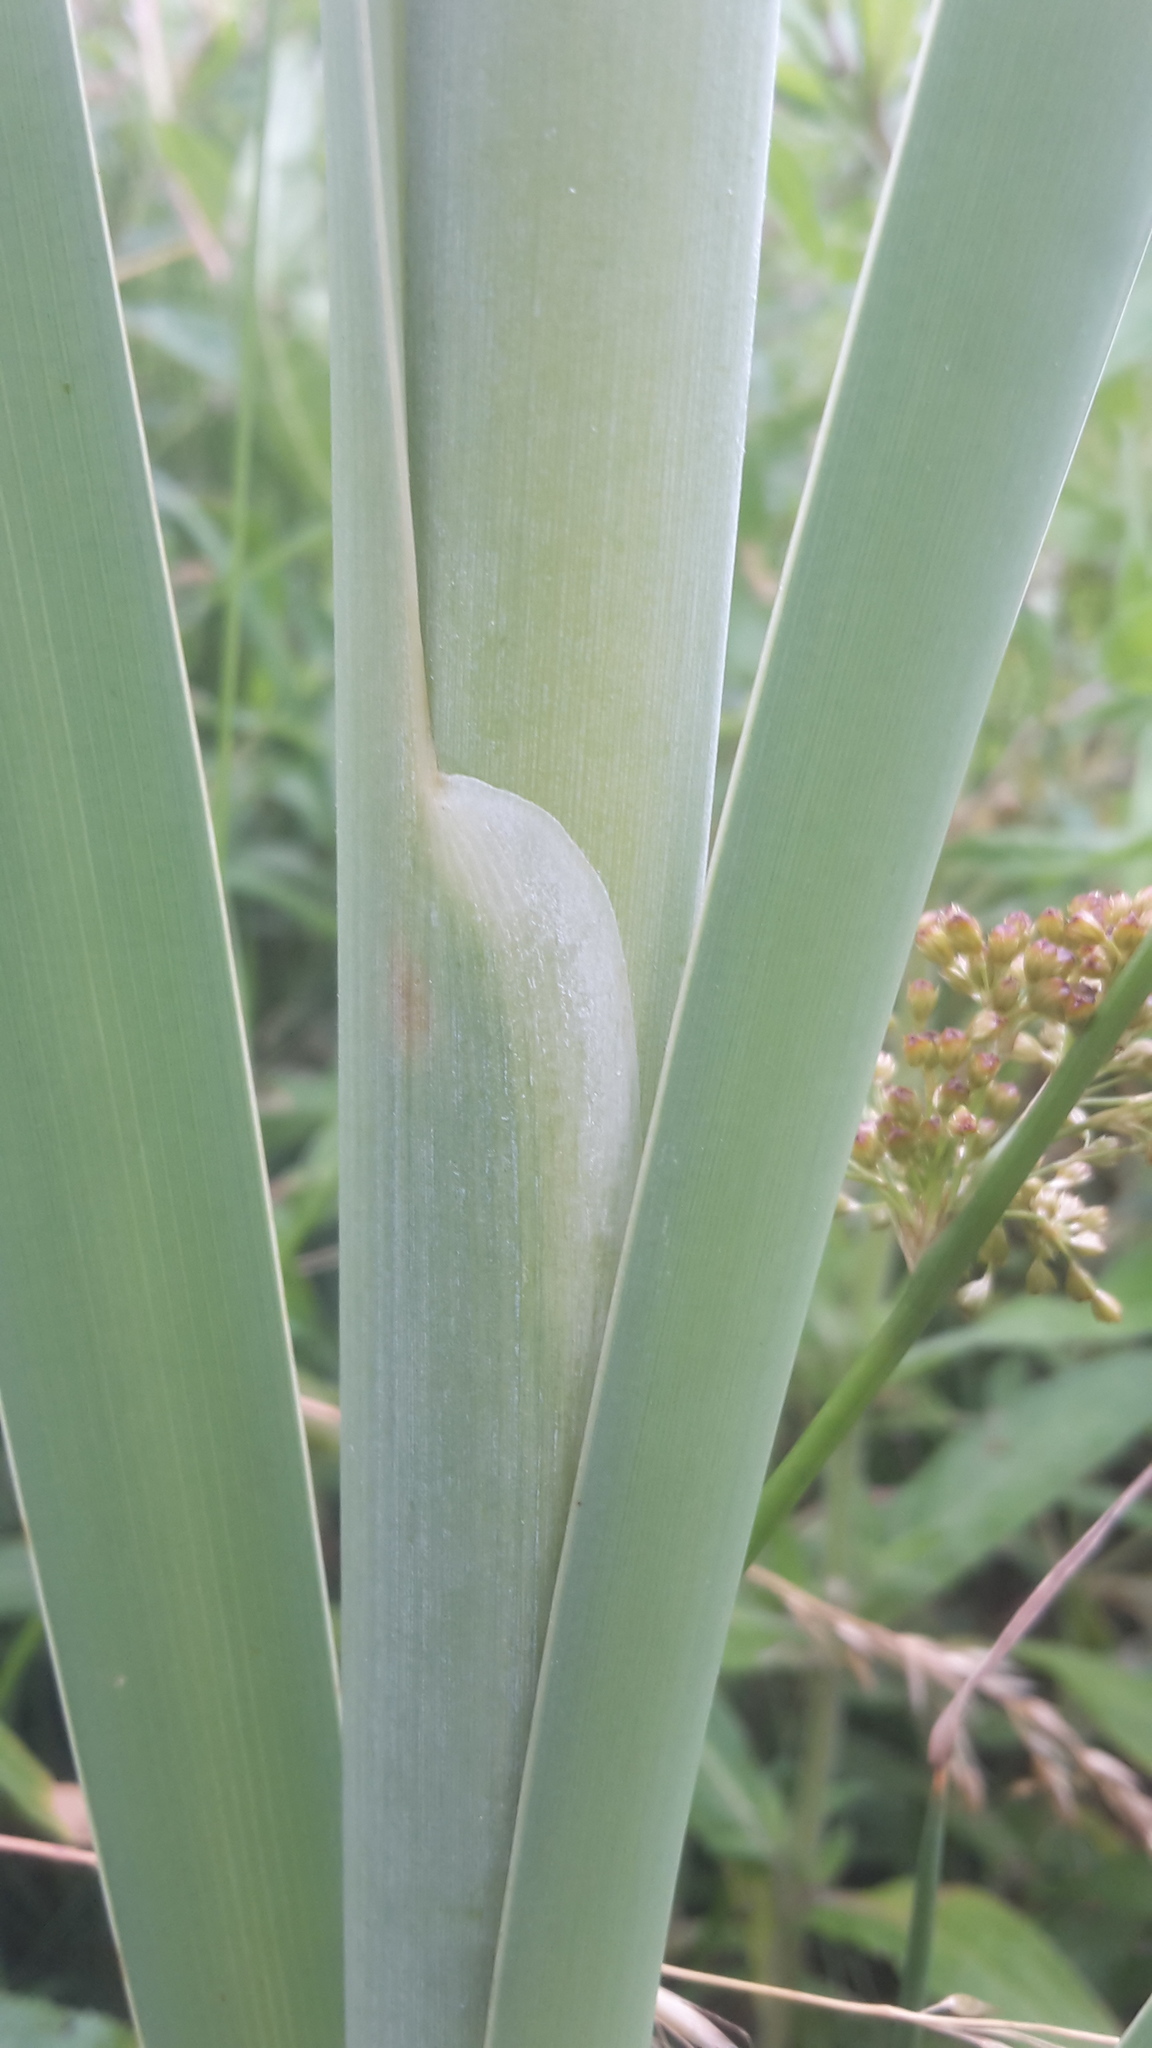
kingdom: Plantae
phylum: Tracheophyta
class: Liliopsida
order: Poales
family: Typhaceae
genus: Typha
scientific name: Typha latifolia
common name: Broadleaf cattail
